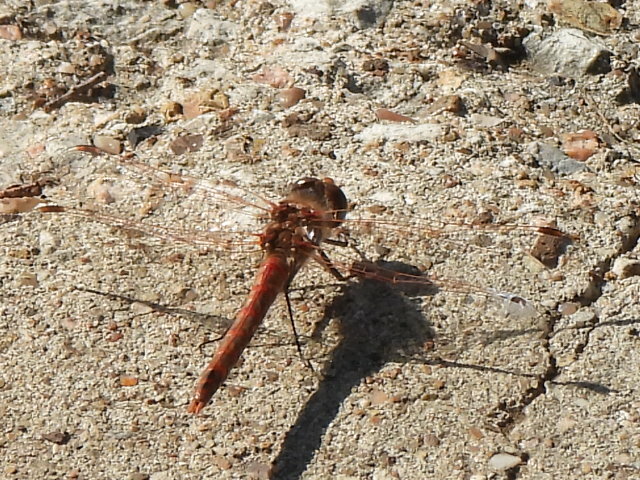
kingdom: Animalia
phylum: Arthropoda
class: Insecta
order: Odonata
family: Libellulidae
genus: Sympetrum
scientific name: Sympetrum corruptum
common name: Variegated meadowhawk
